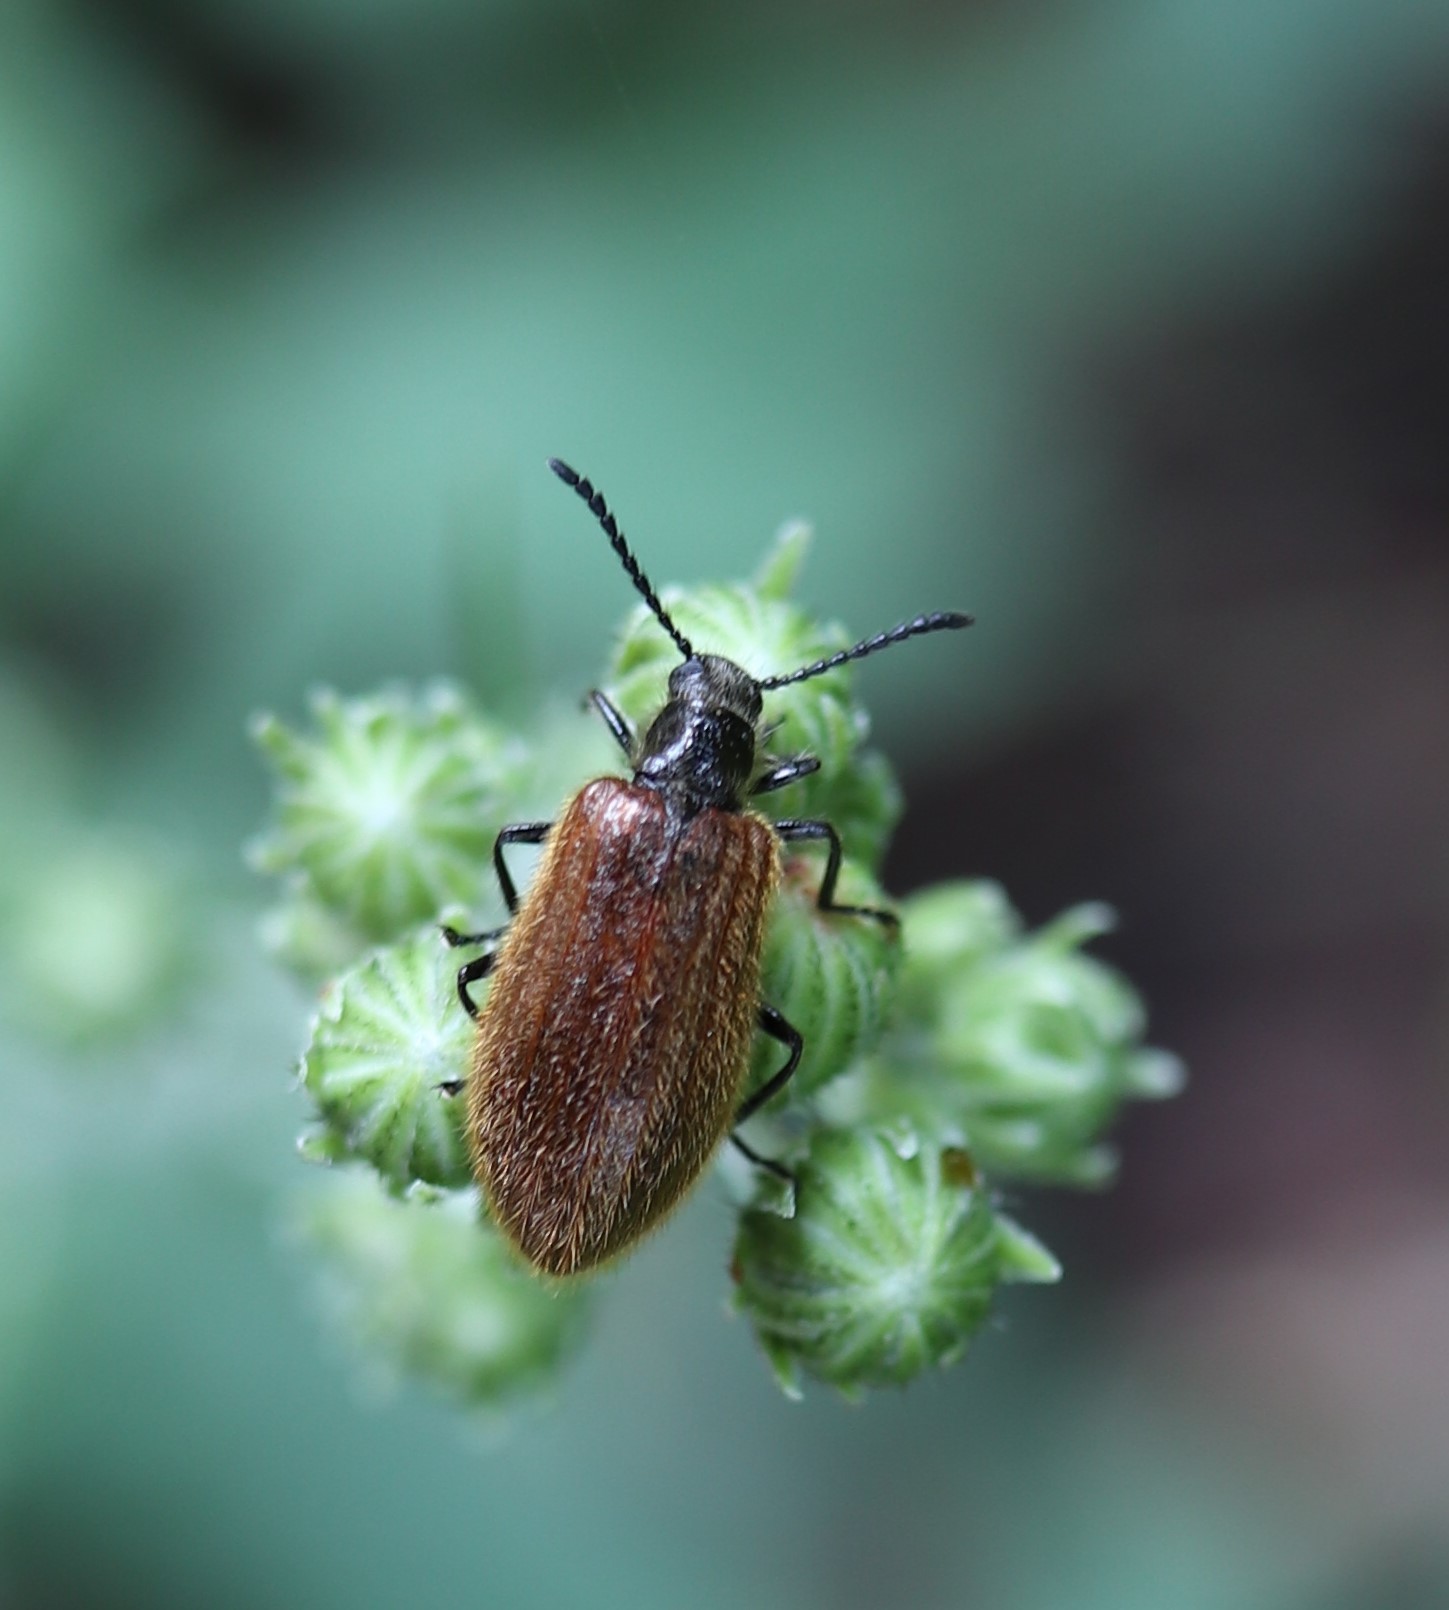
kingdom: Animalia
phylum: Arthropoda
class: Insecta
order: Coleoptera
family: Tenebrionidae
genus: Lagria
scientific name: Lagria hirta
